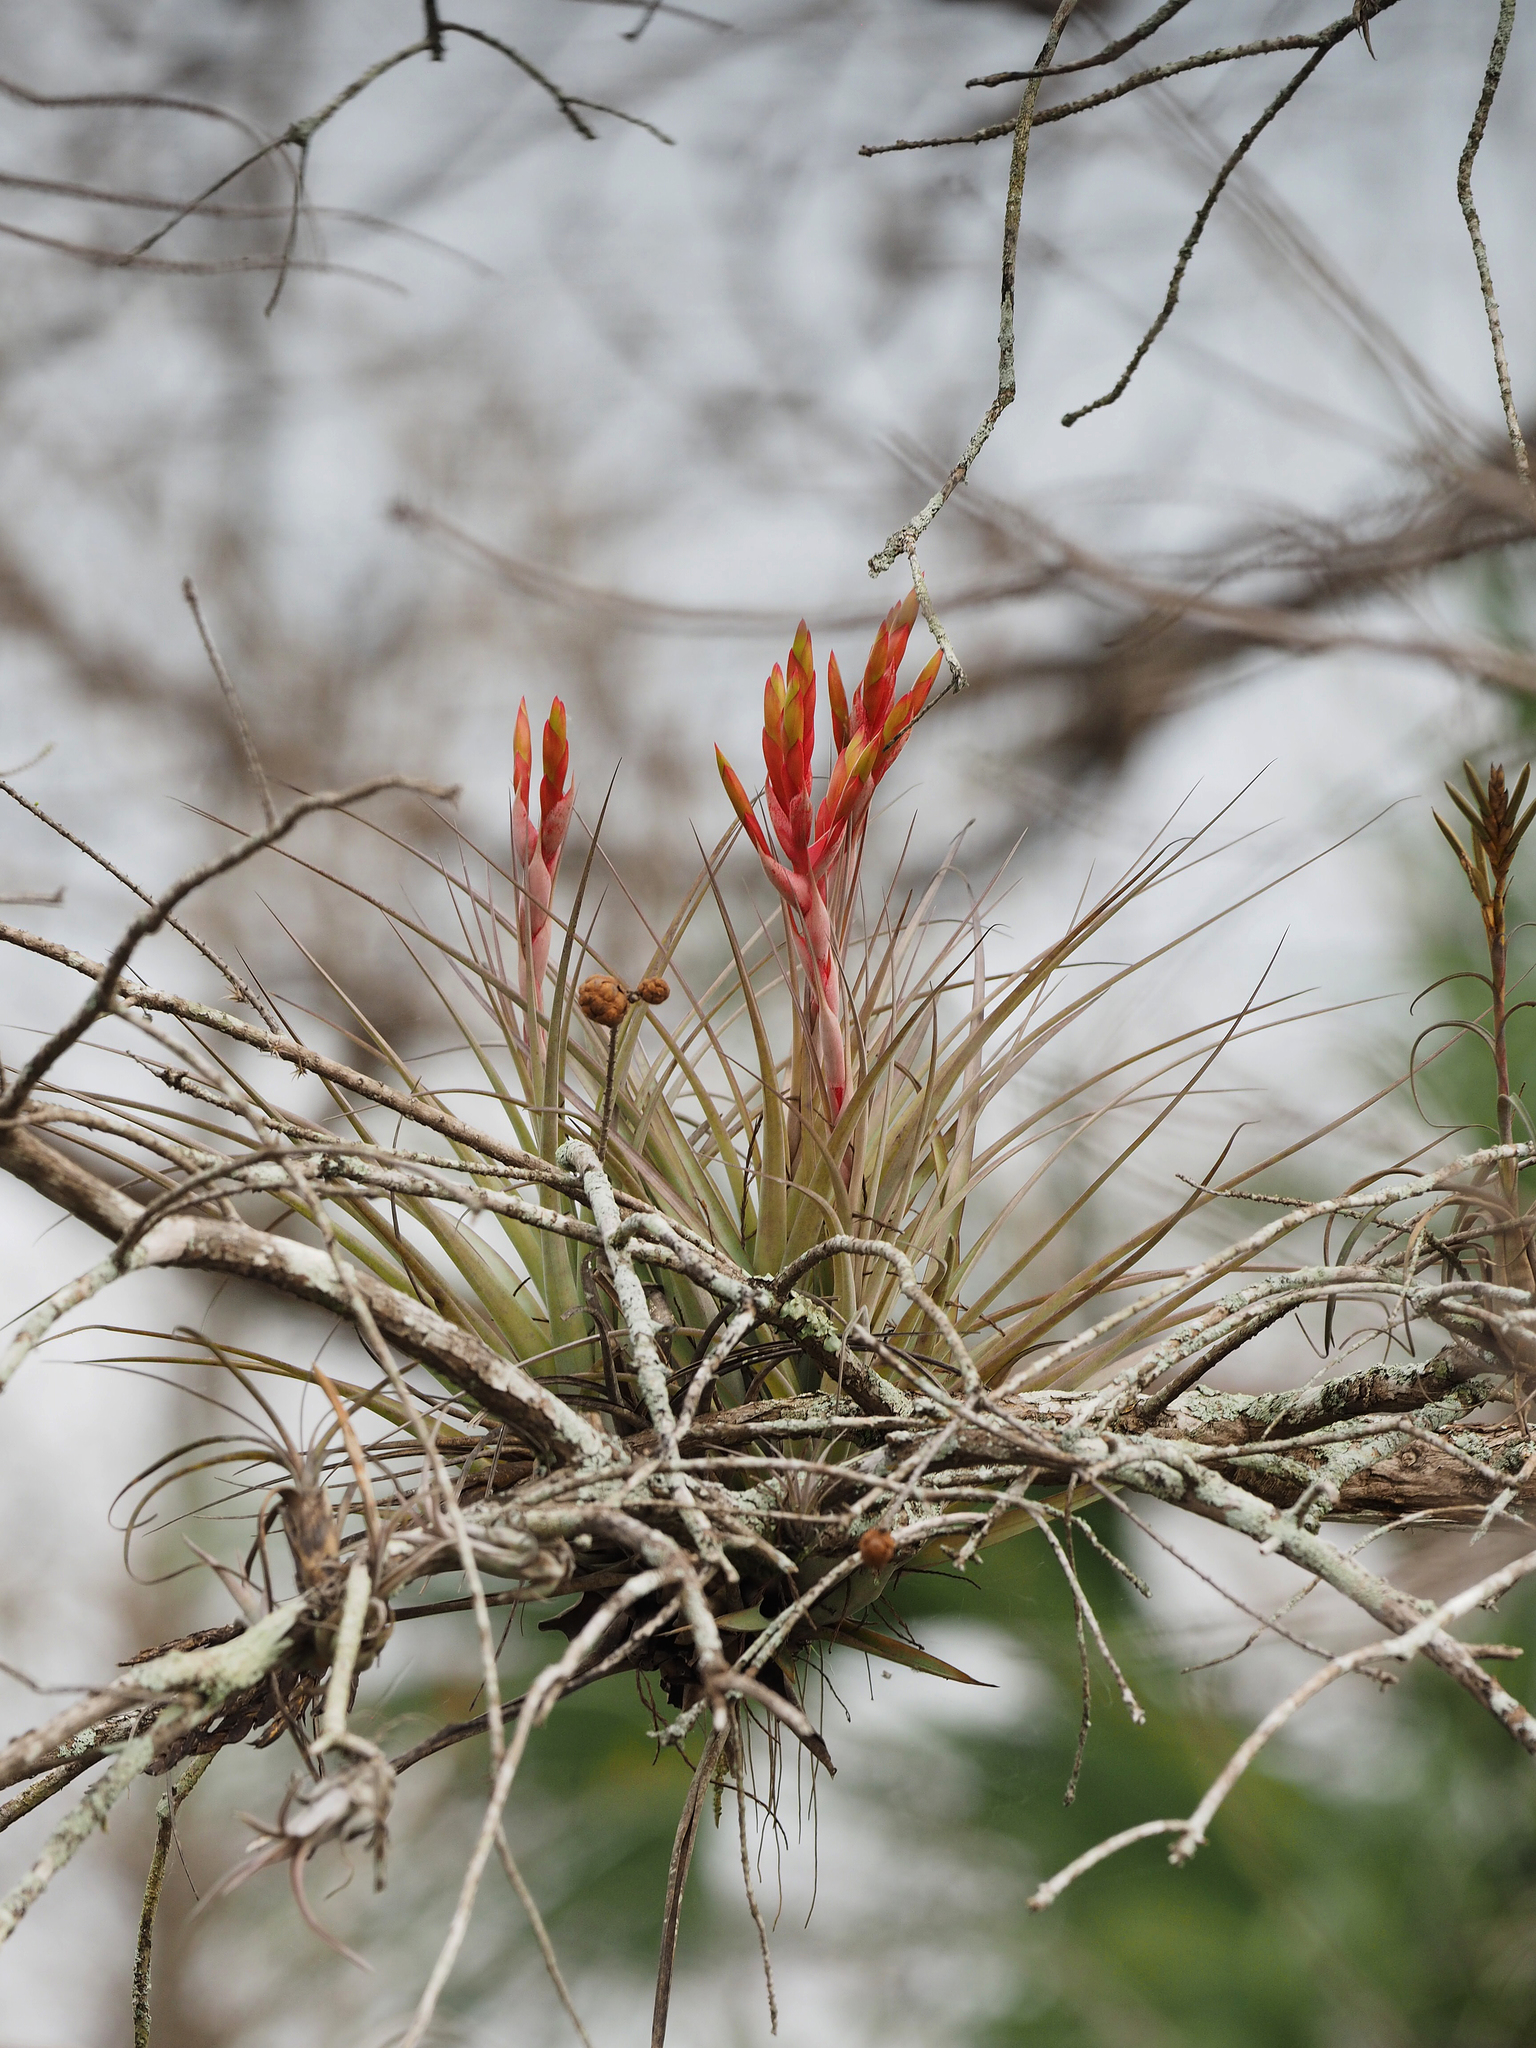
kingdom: Plantae
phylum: Tracheophyta
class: Liliopsida
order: Poales
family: Bromeliaceae
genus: Tillandsia
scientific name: Tillandsia fasciculata
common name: Giant airplant
